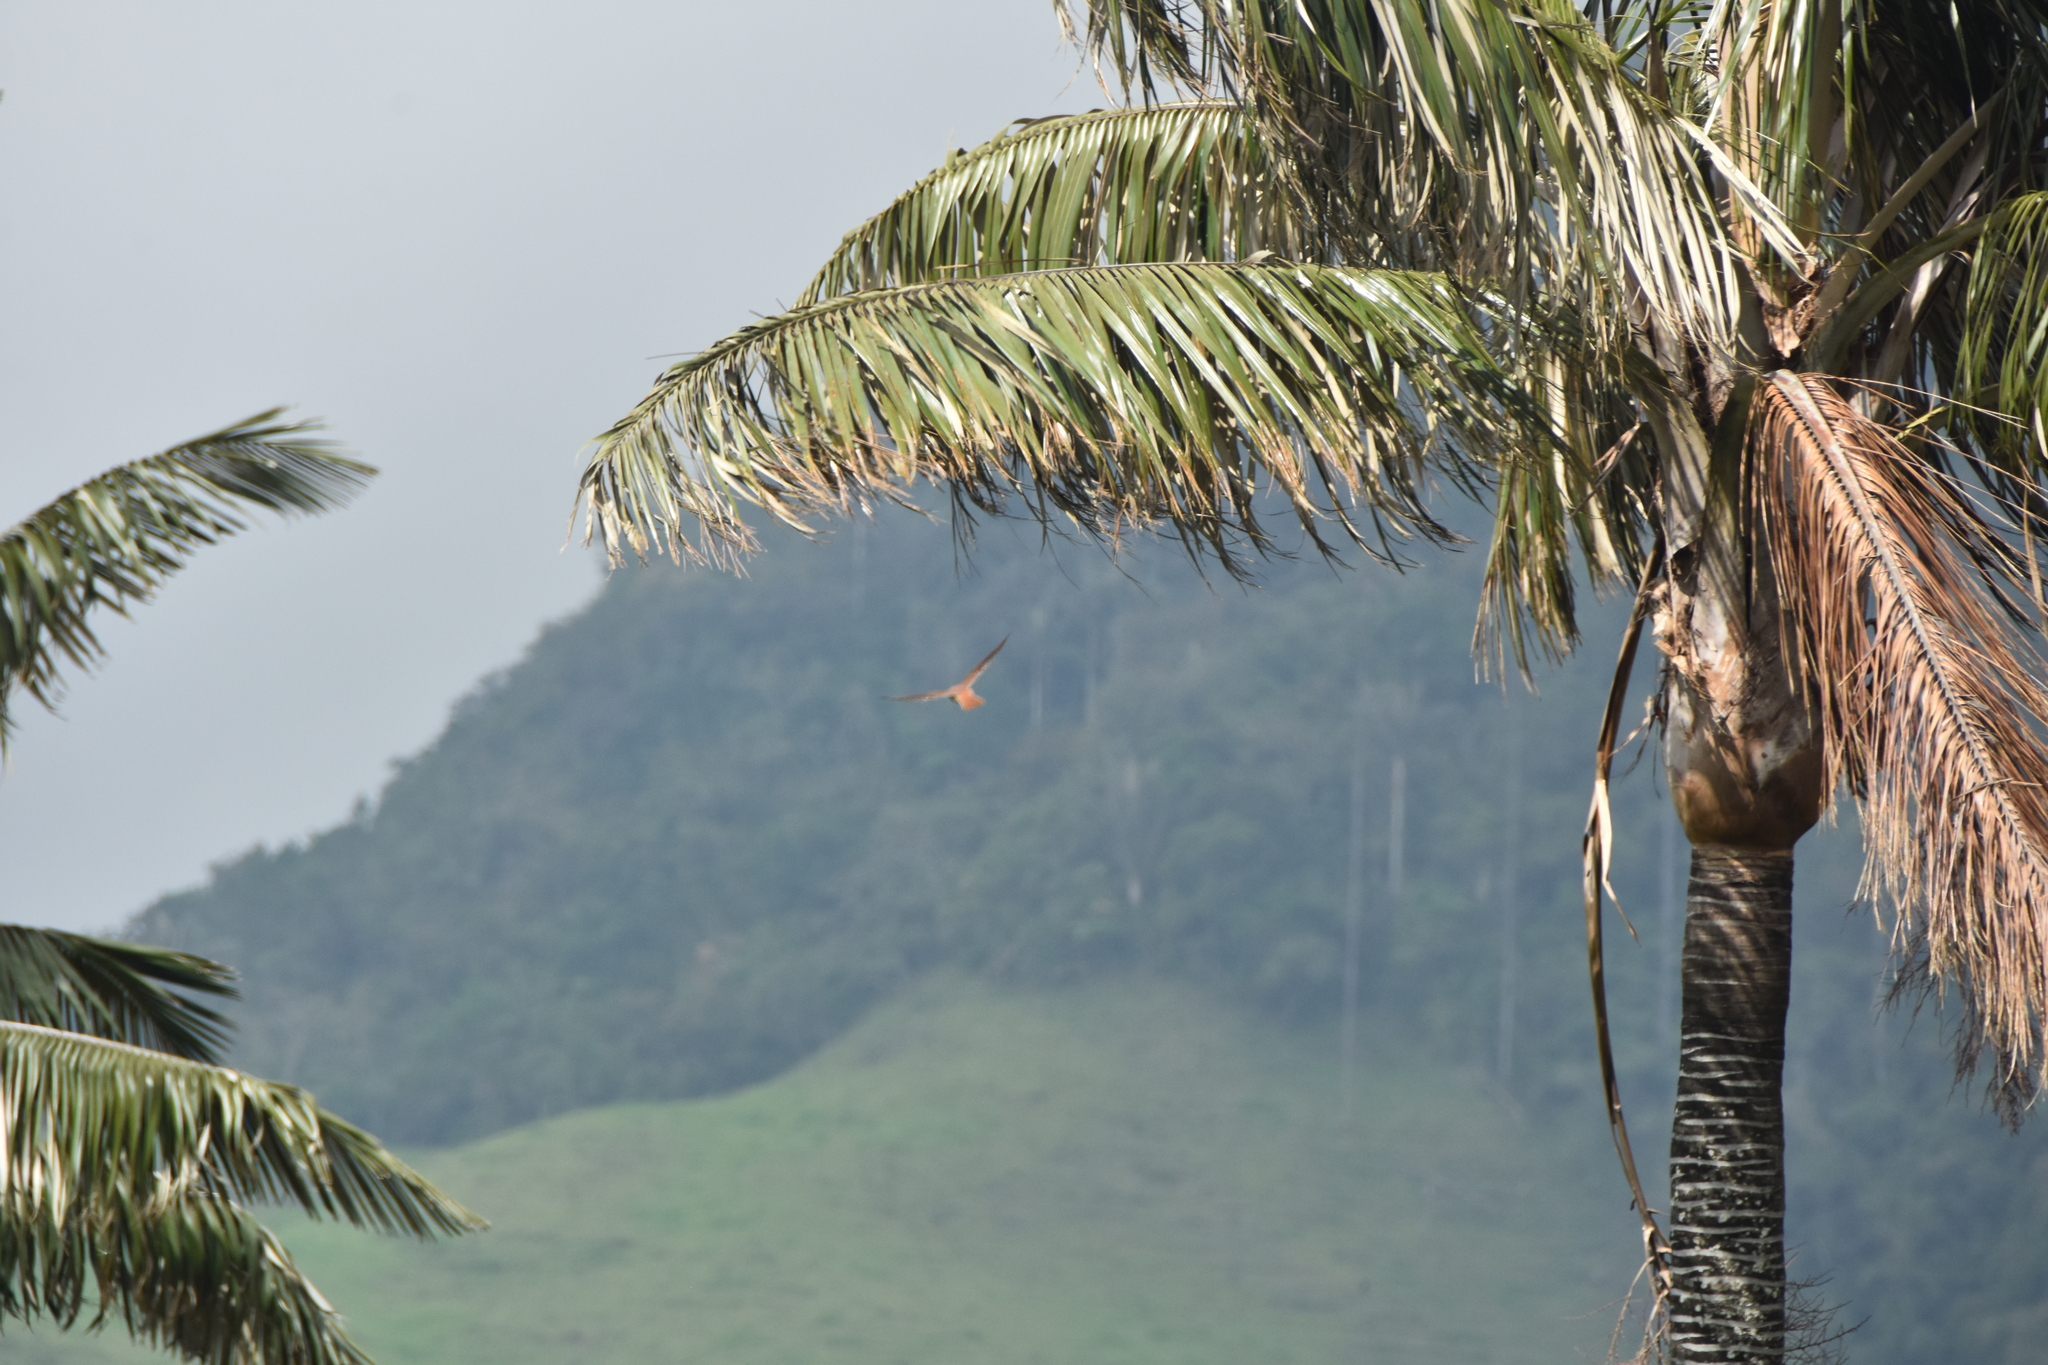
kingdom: Animalia
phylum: Chordata
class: Aves
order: Falconiformes
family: Falconidae
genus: Falco
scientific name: Falco sparverius
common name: American kestrel
